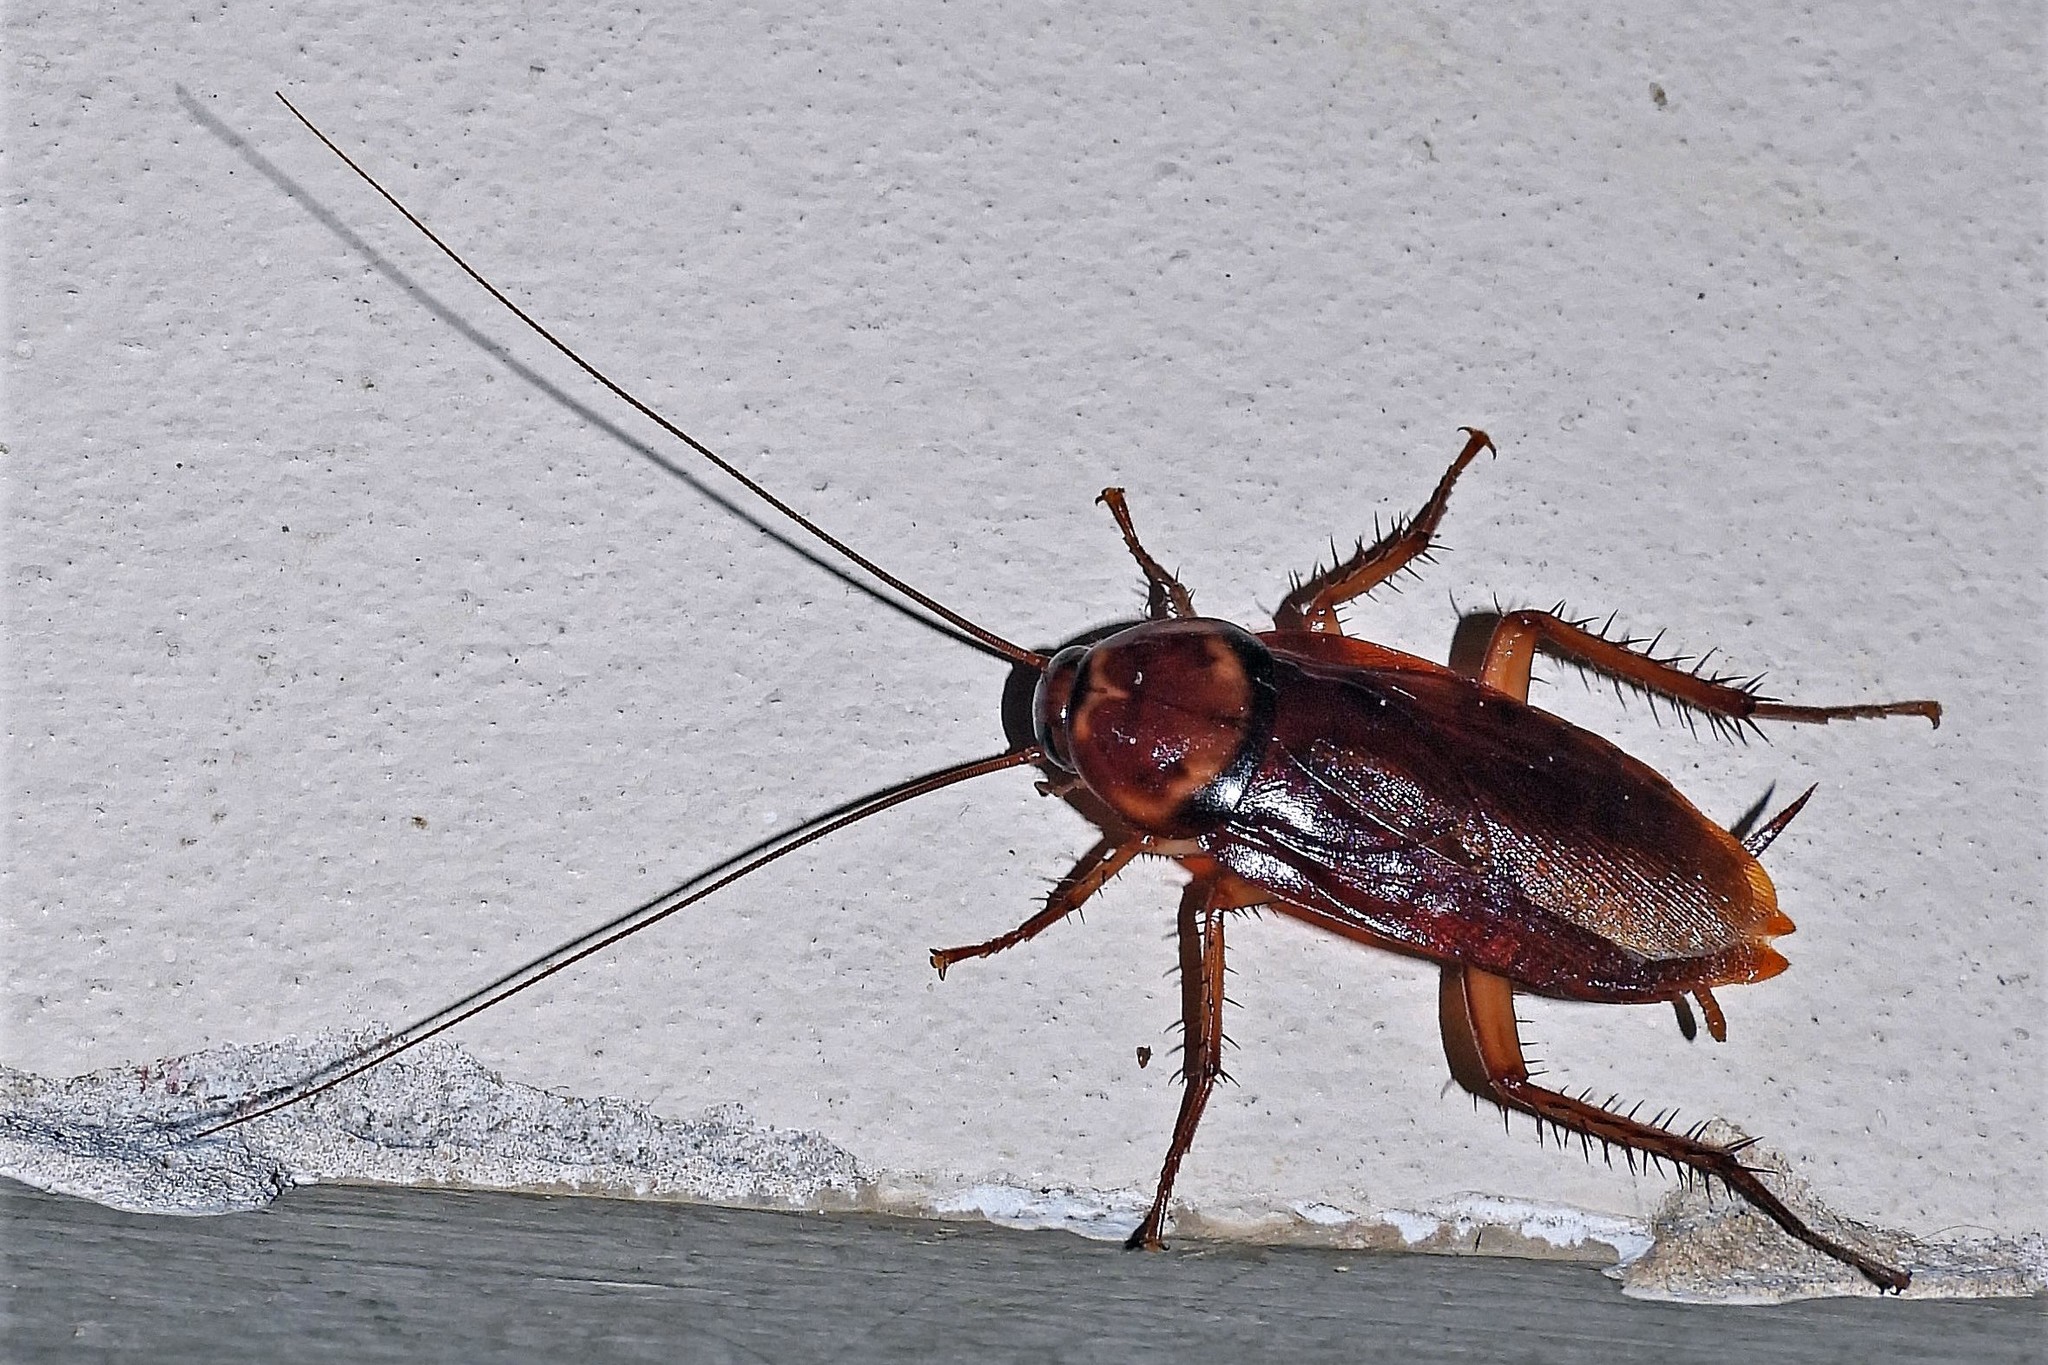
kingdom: Animalia
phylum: Arthropoda
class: Insecta
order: Blattodea
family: Blattidae
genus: Periplaneta
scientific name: Periplaneta americana
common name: American cockroach
